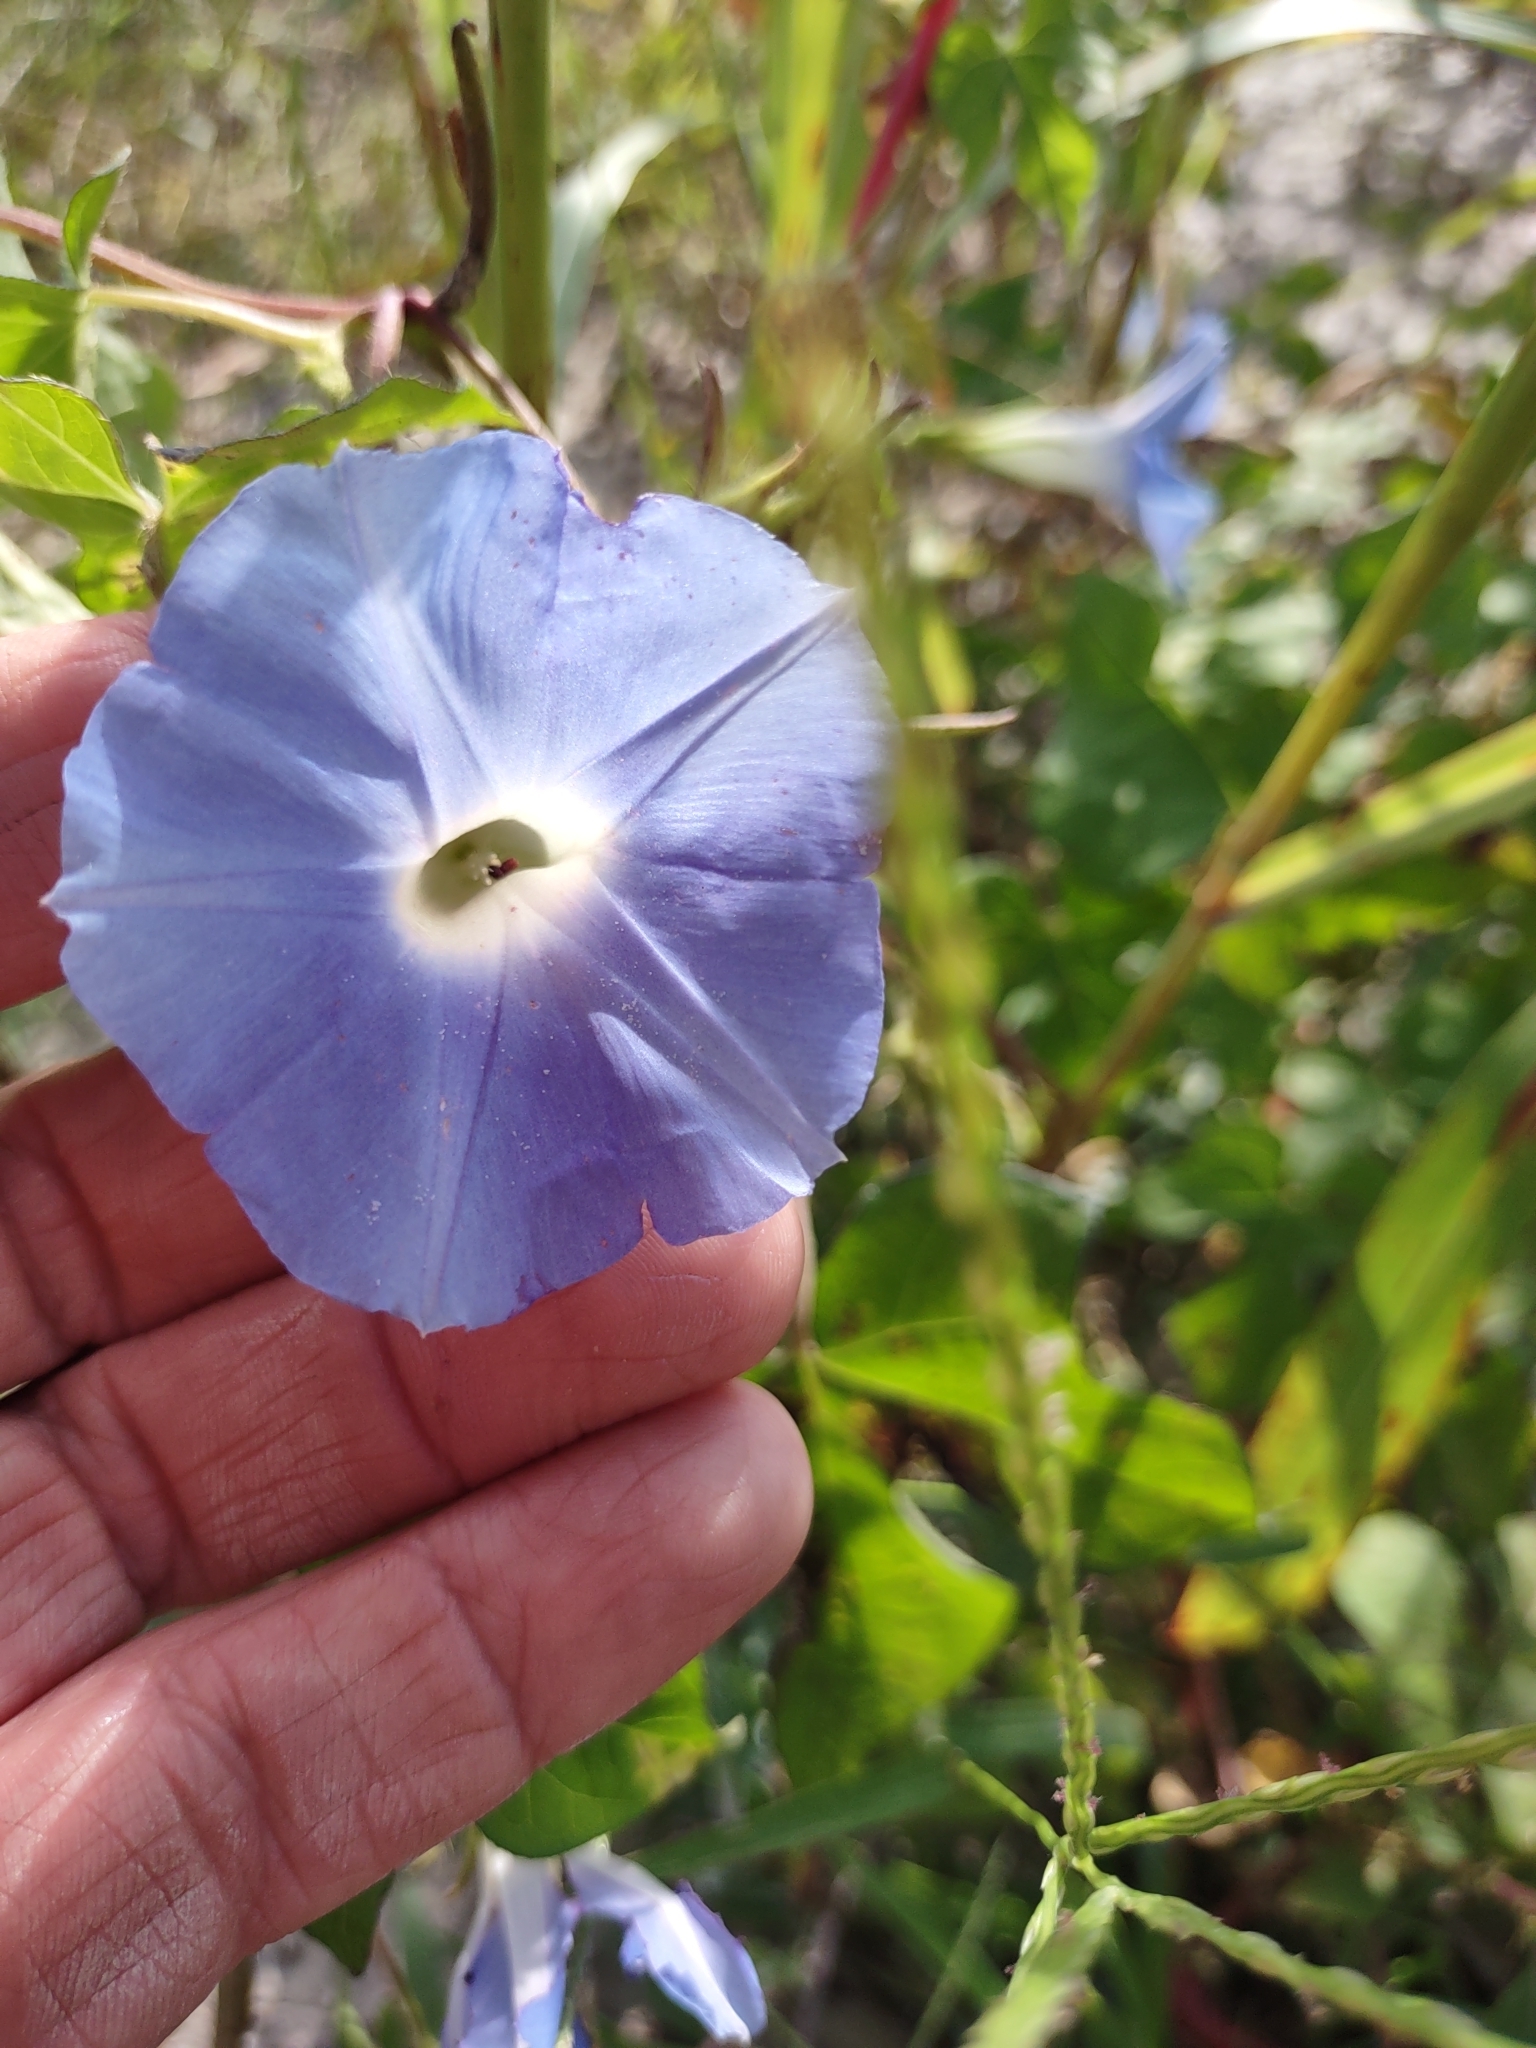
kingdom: Plantae
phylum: Tracheophyta
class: Magnoliopsida
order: Solanales
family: Convolvulaceae
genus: Ipomoea
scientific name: Ipomoea hederacea
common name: Ivy-leaved morning-glory
